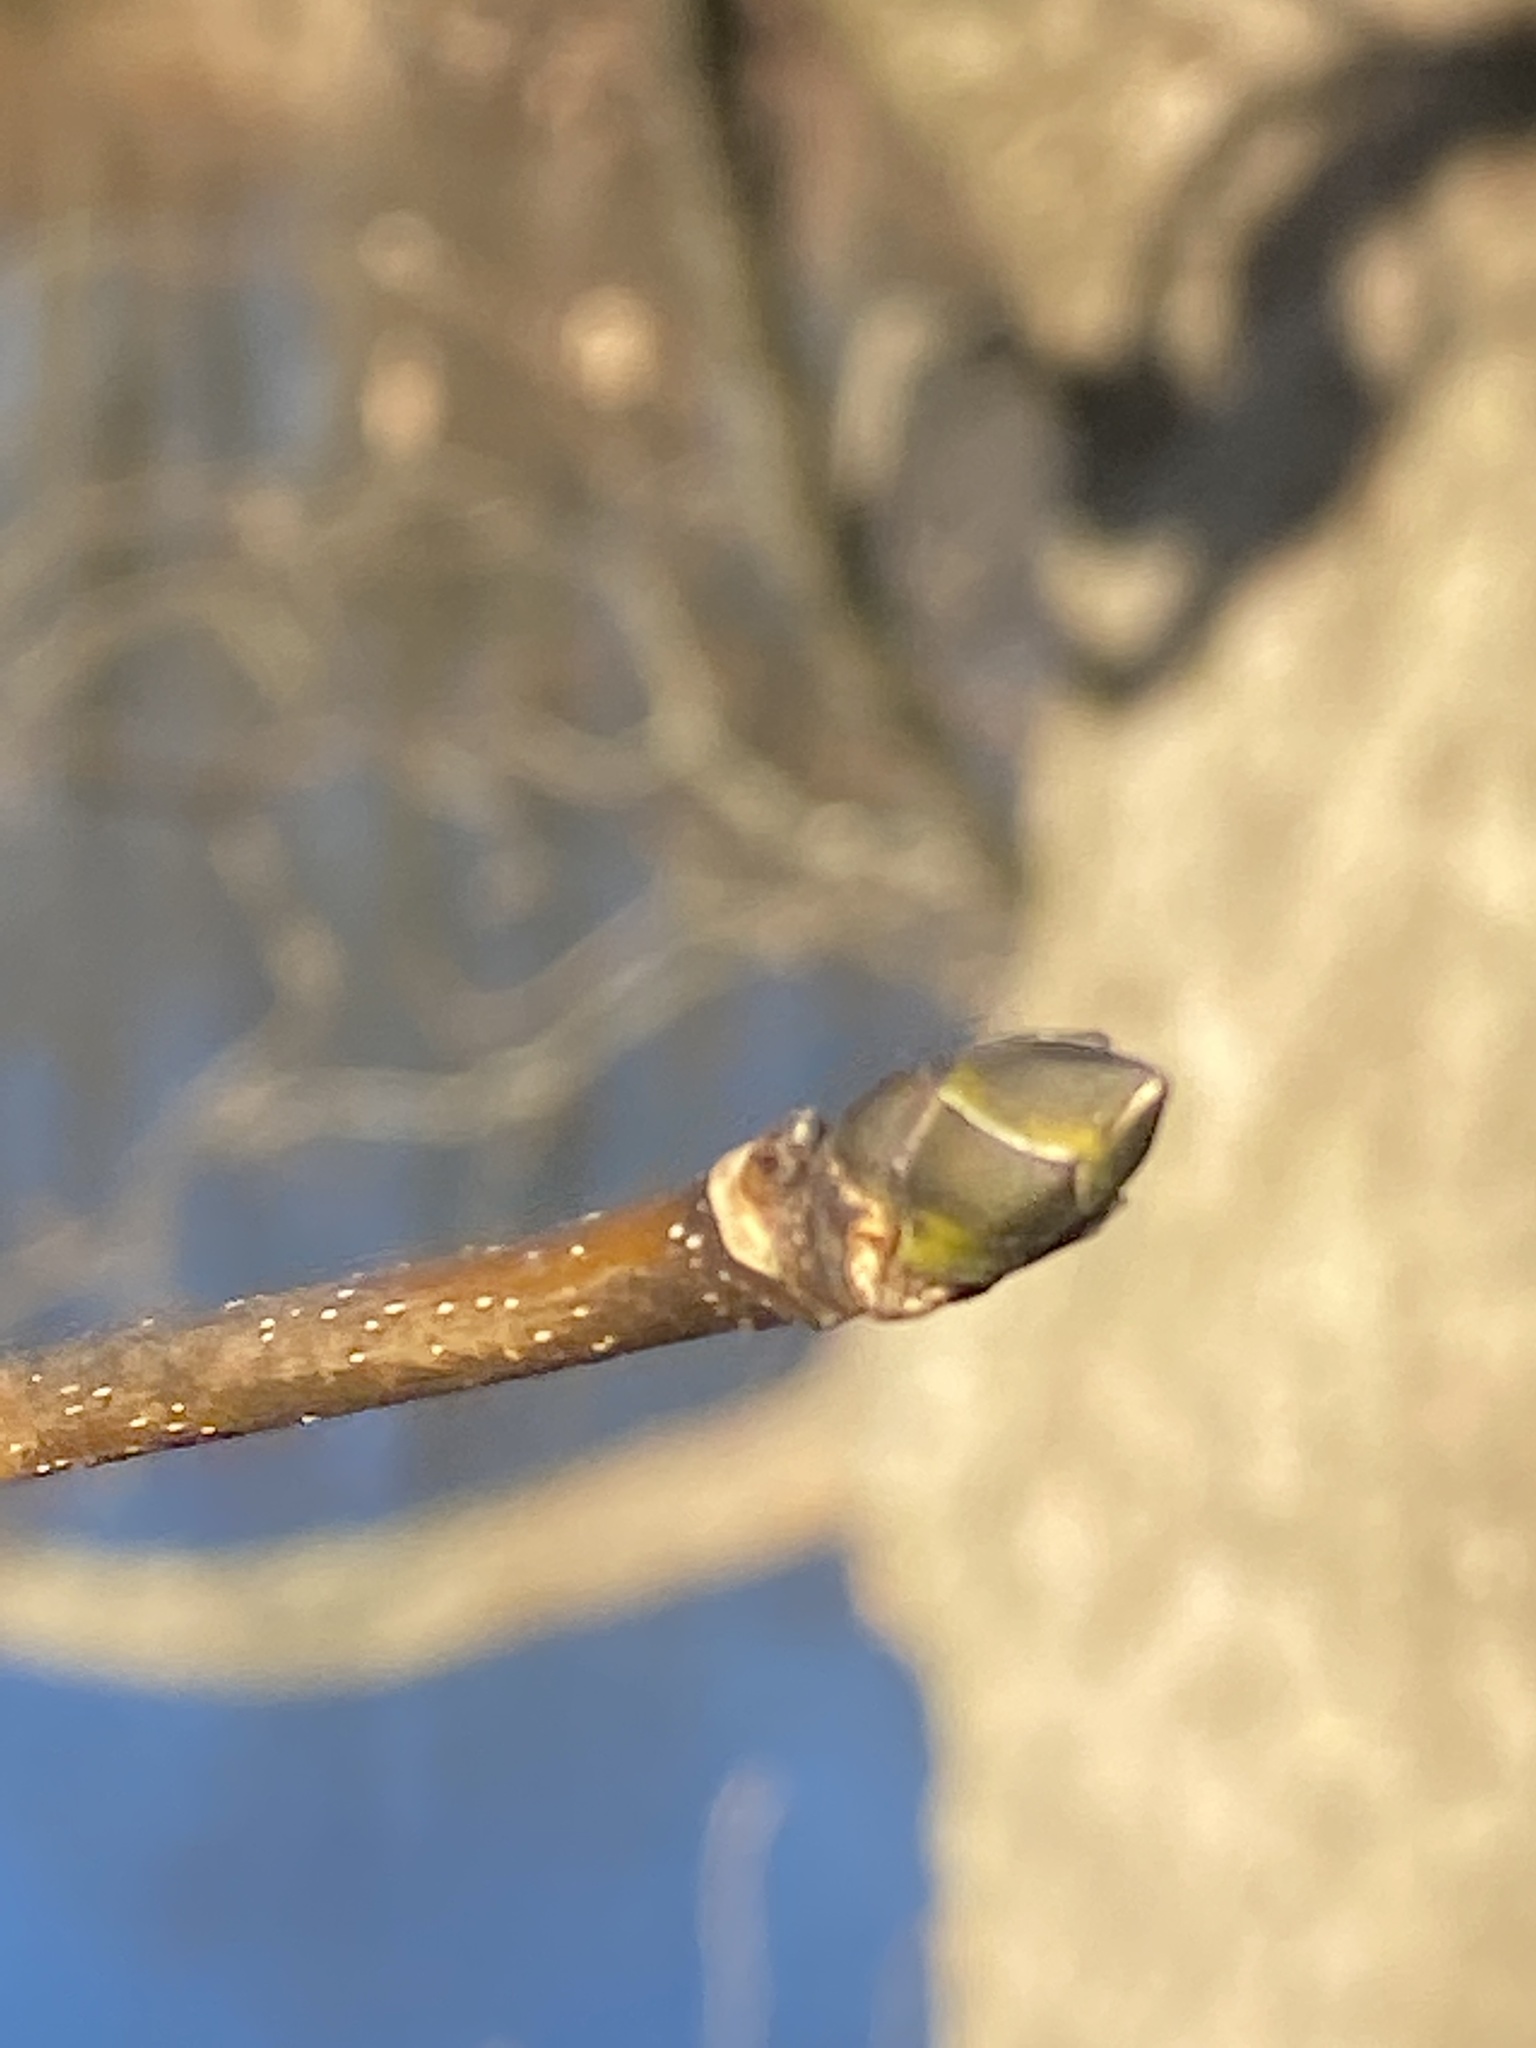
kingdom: Plantae
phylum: Tracheophyta
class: Magnoliopsida
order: Sapindales
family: Sapindaceae
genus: Acer
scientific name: Acer pseudoplatanus
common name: Sycamore
